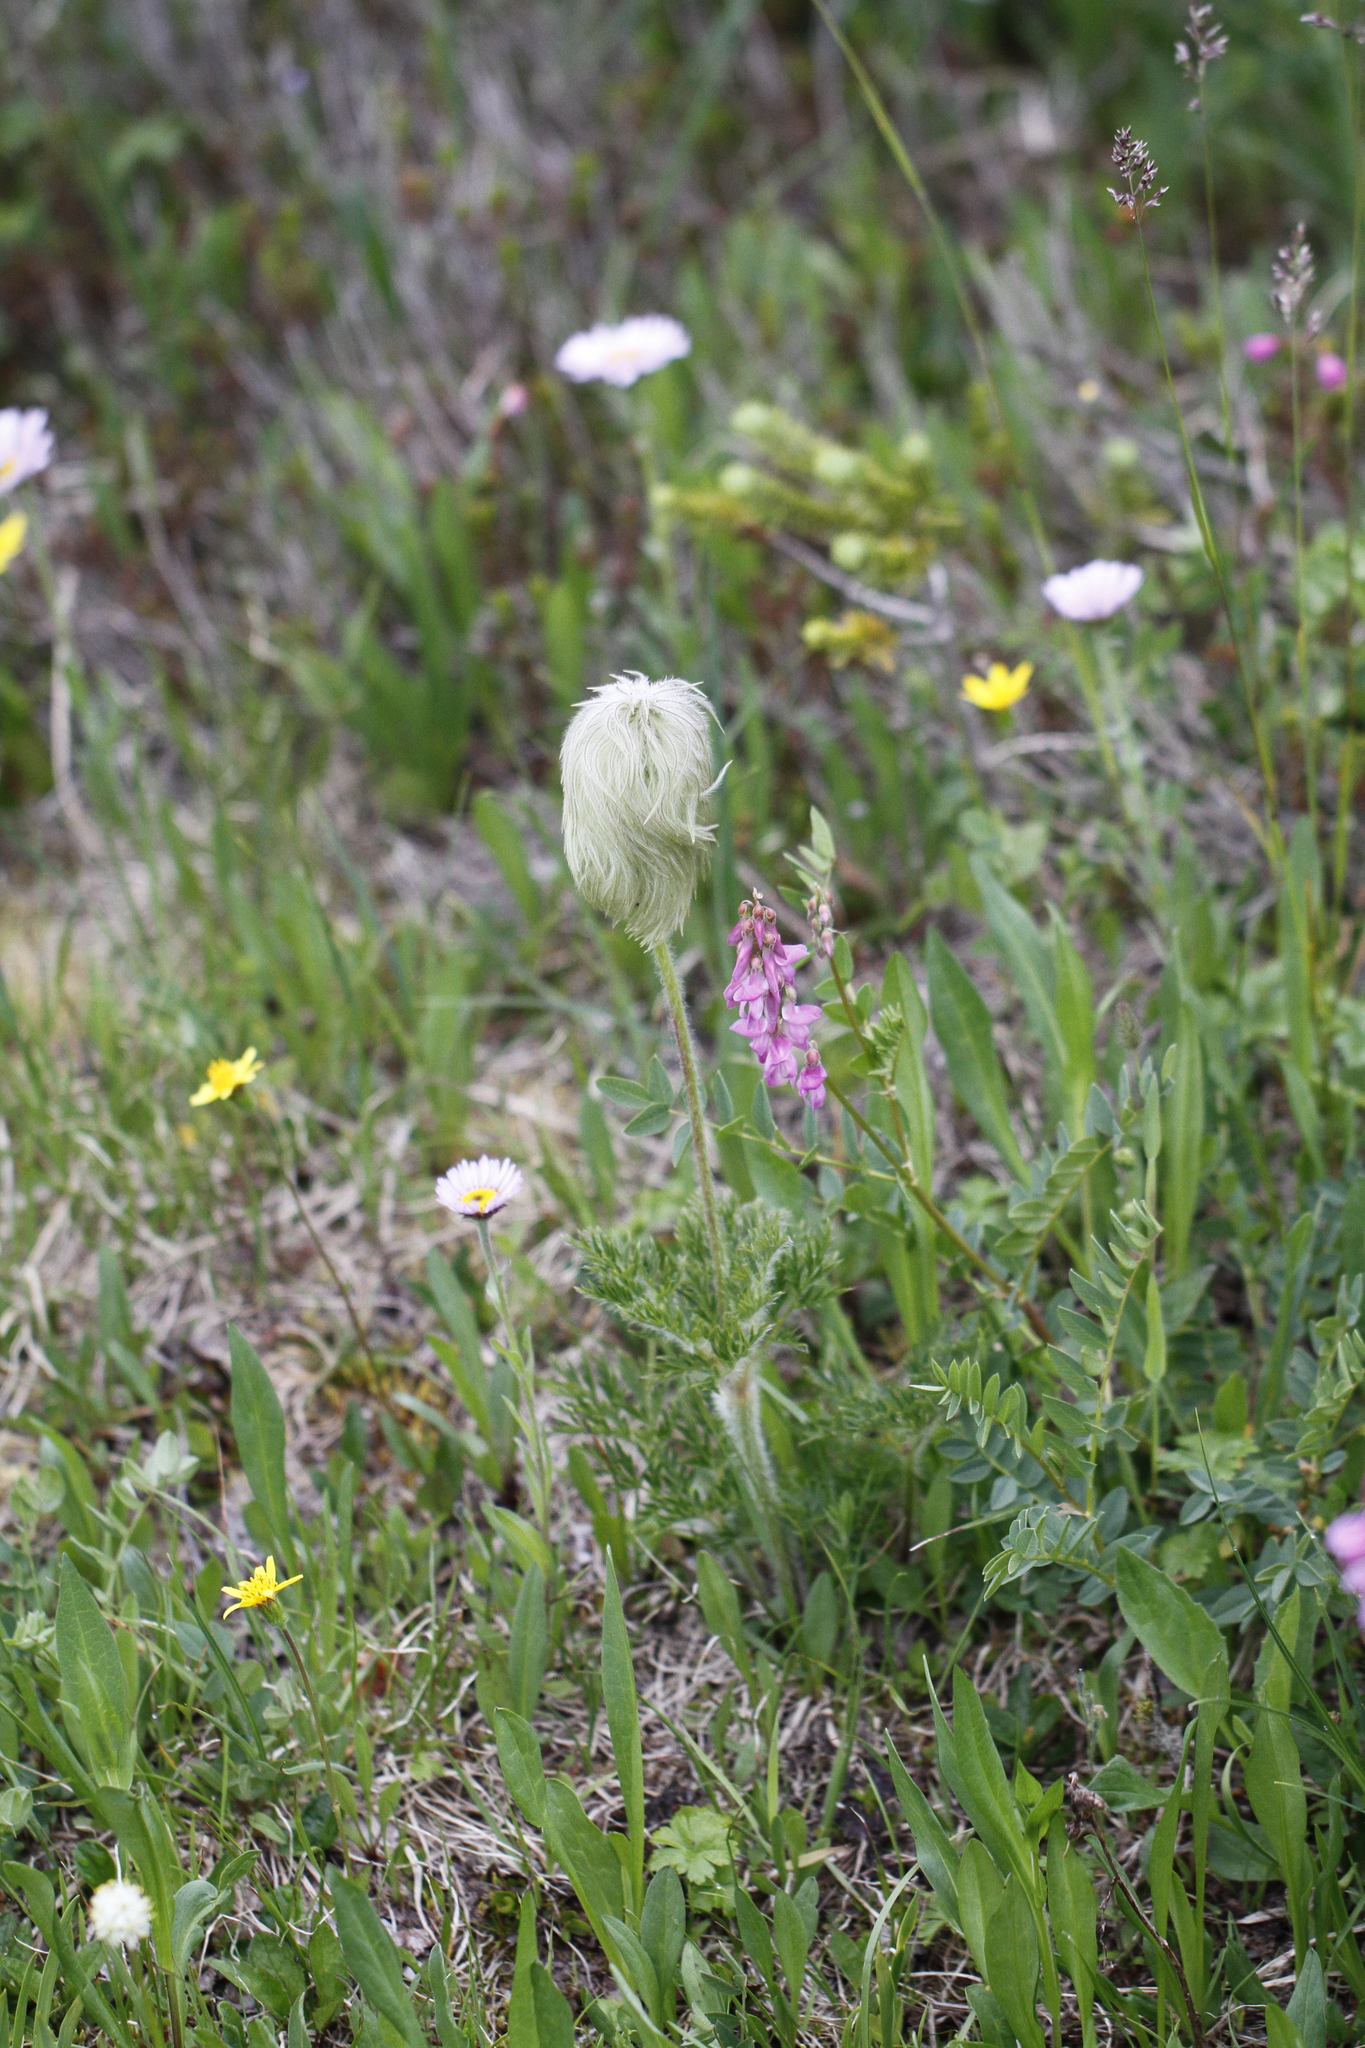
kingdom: Plantae
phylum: Tracheophyta
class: Magnoliopsida
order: Ranunculales
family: Ranunculaceae
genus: Pulsatilla
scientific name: Pulsatilla occidentalis
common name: Mountain pasqueflower
